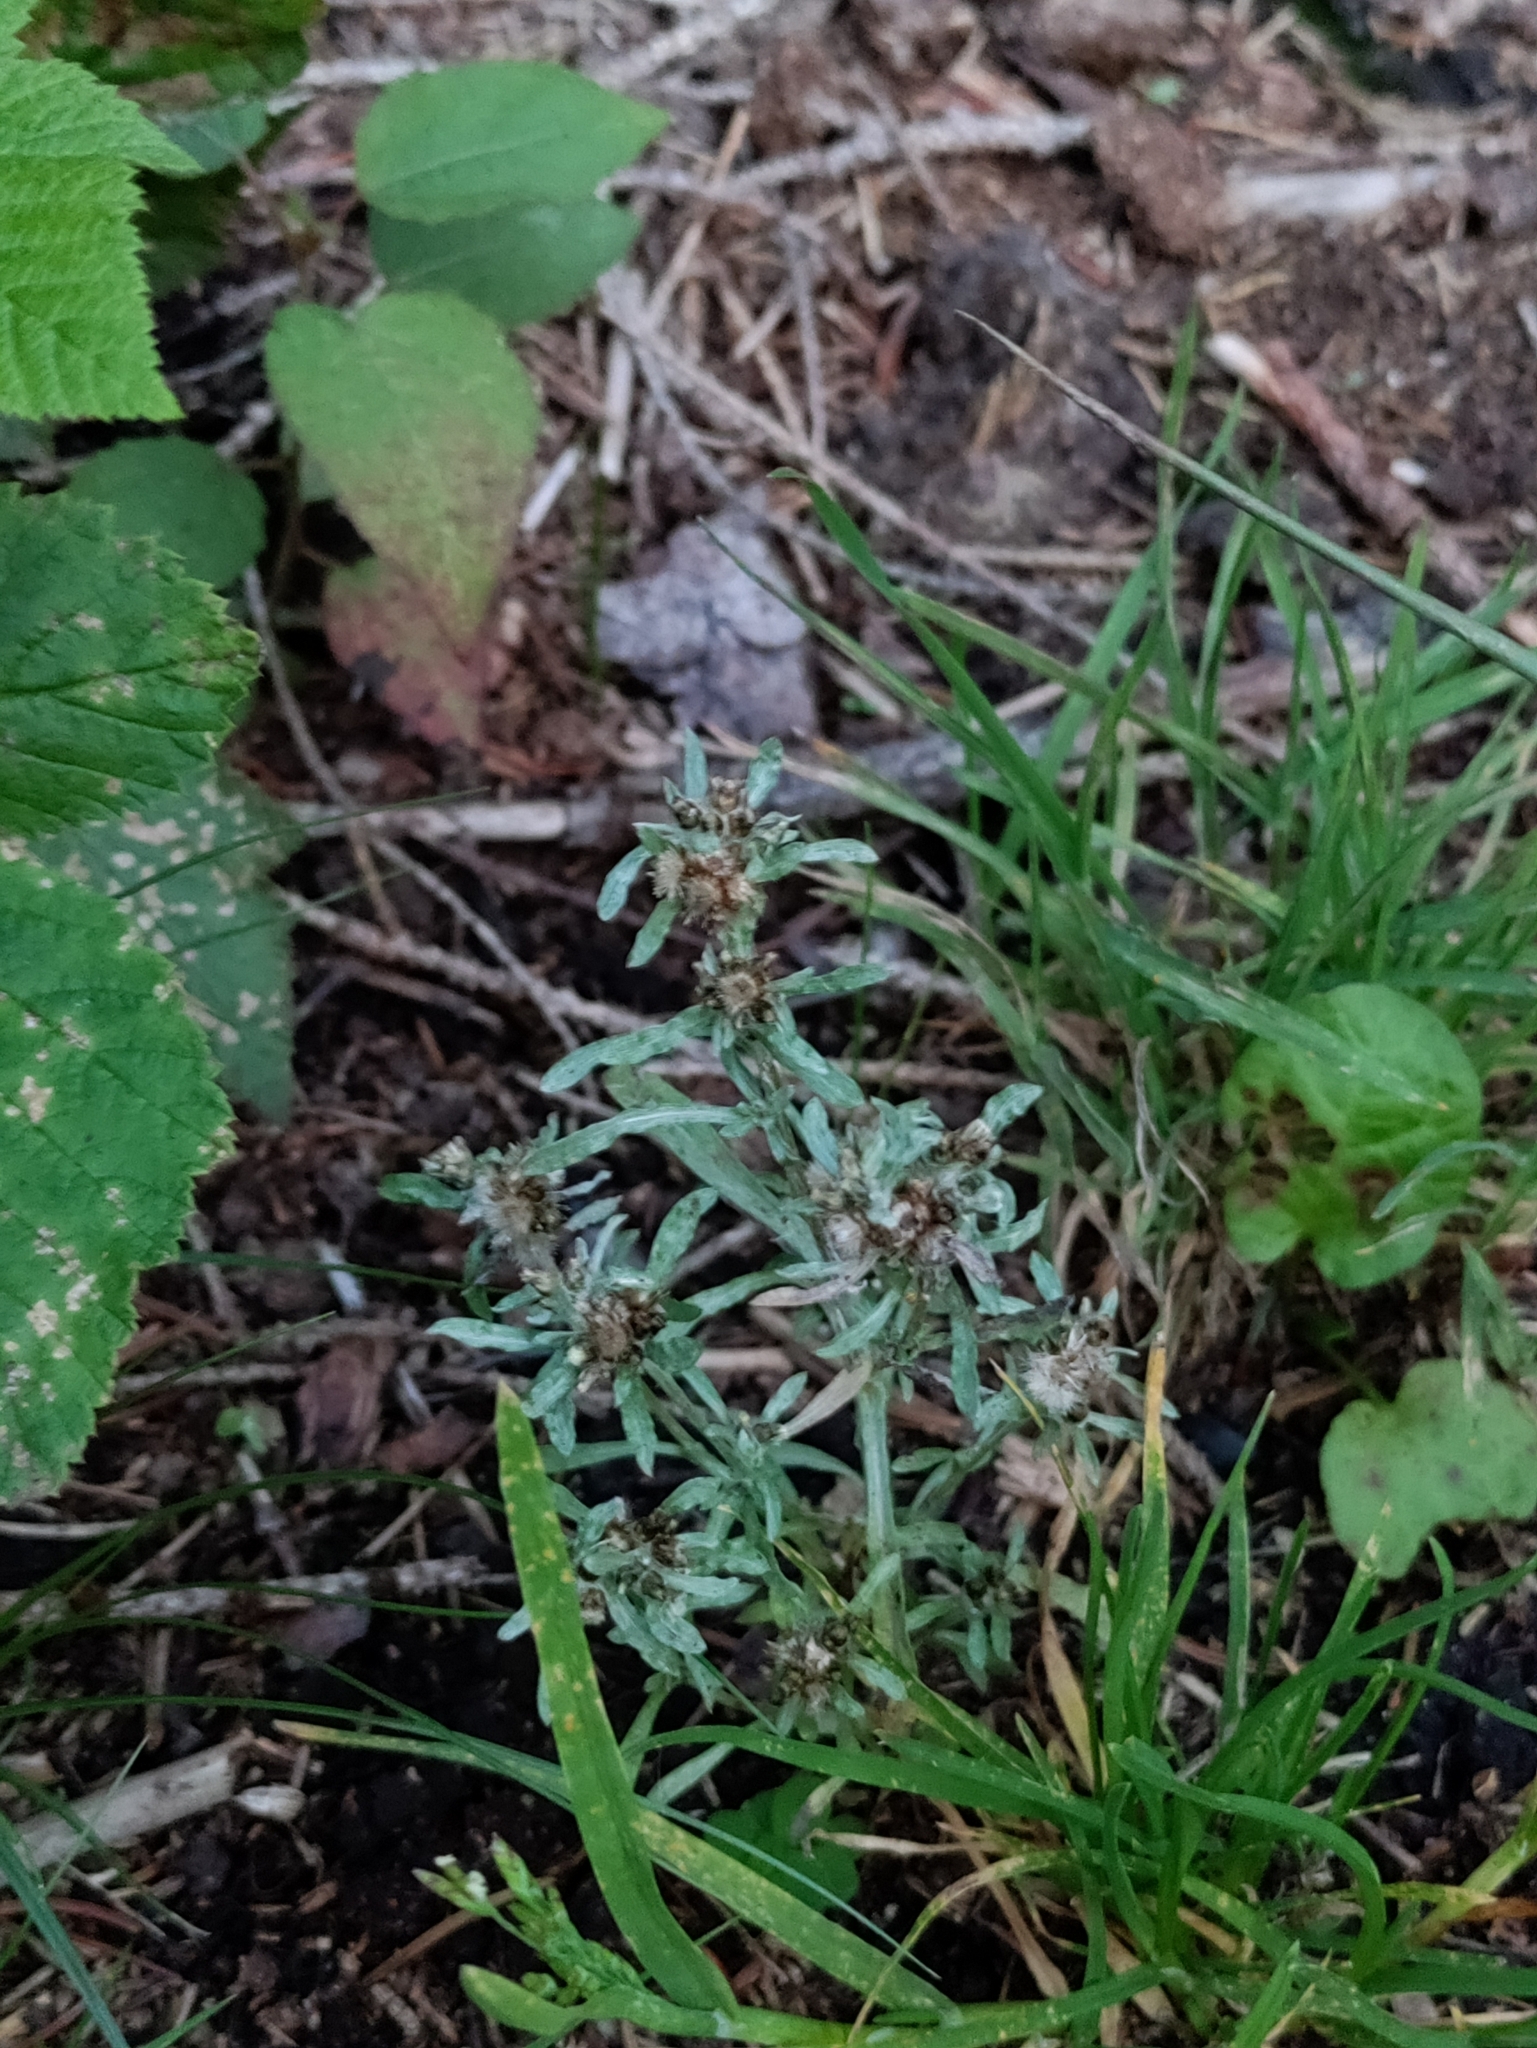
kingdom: Plantae
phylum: Tracheophyta
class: Magnoliopsida
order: Asterales
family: Asteraceae
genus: Gnaphalium
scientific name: Gnaphalium uliginosum
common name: Marsh cudweed
